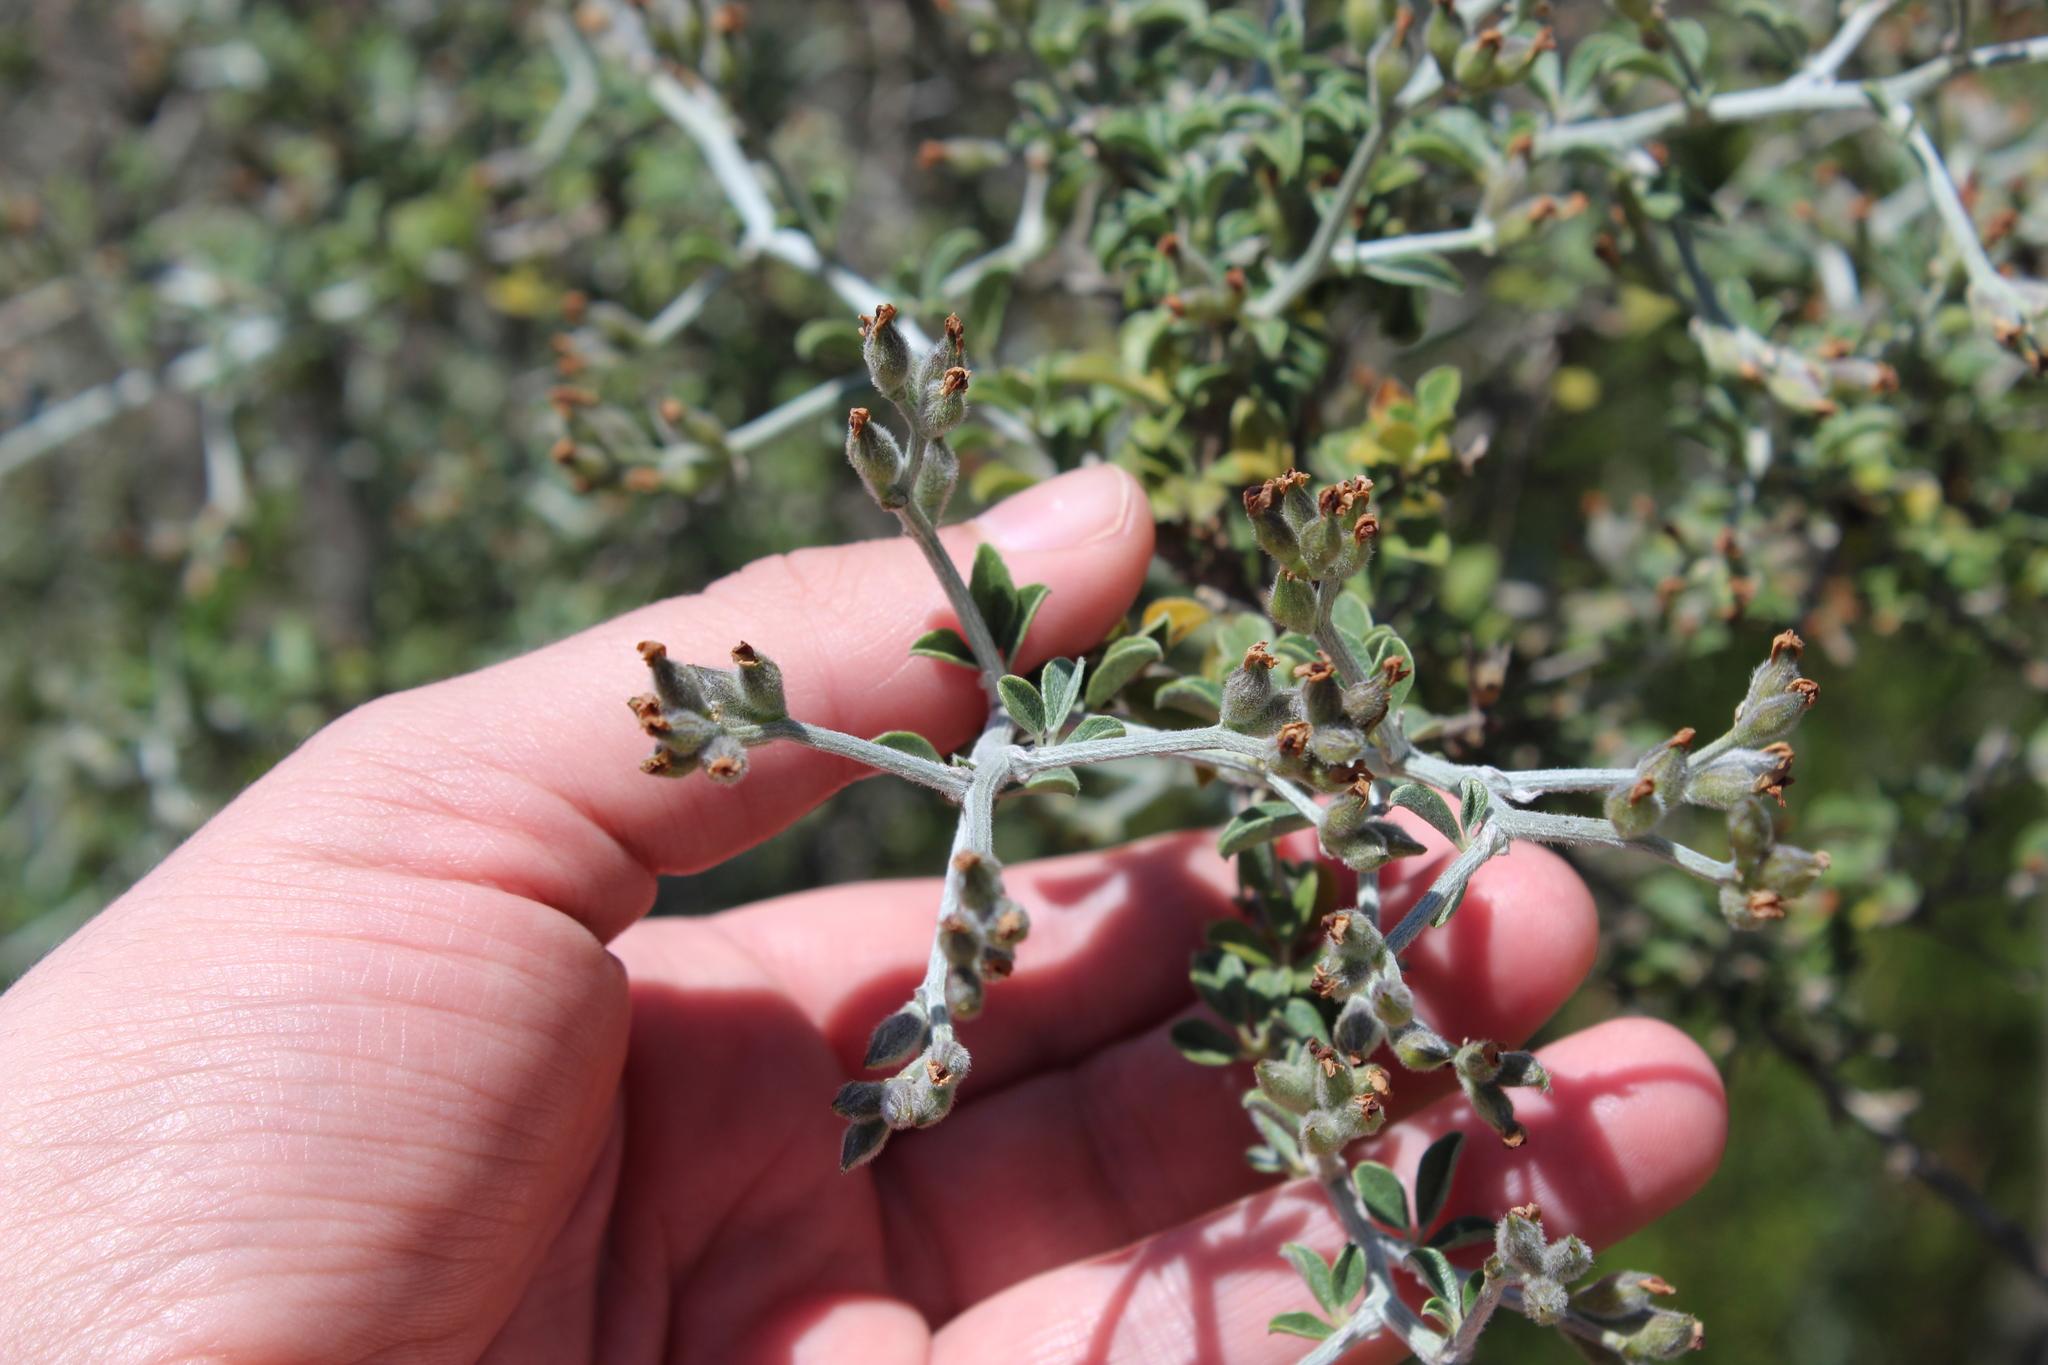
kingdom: Plantae
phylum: Tracheophyta
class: Magnoliopsida
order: Fabales
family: Fabaceae
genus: Psoralea
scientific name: Psoralea hirta
